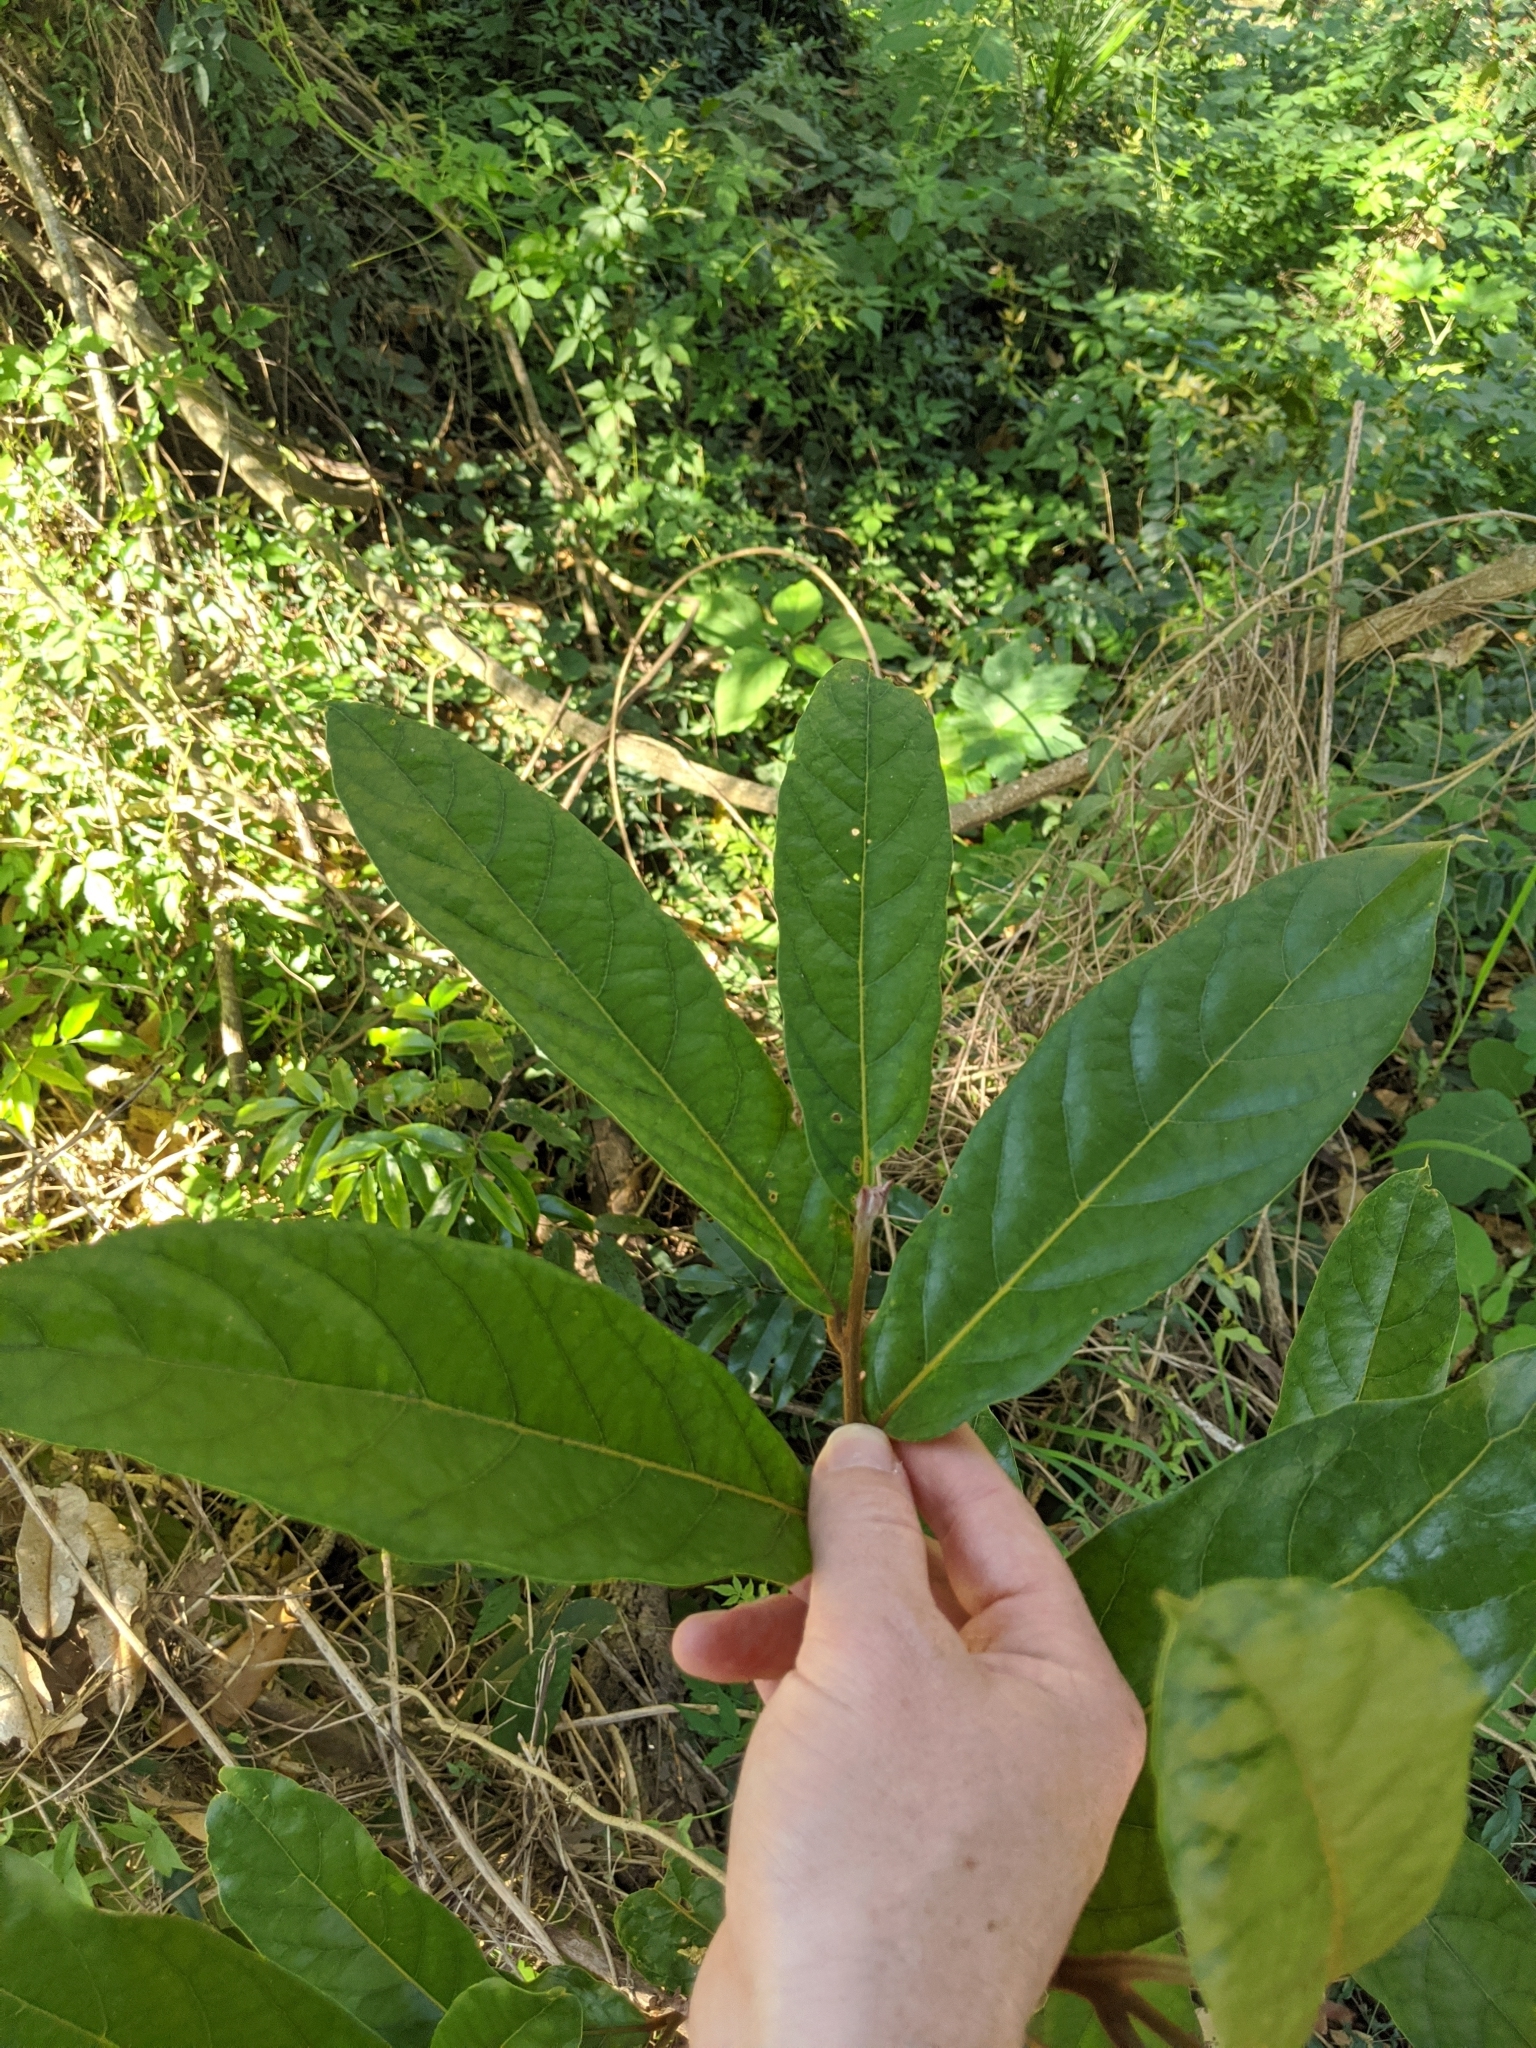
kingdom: Plantae
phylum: Tracheophyta
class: Magnoliopsida
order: Laurales
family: Lauraceae
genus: Cryptocarya
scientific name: Cryptocarya obovata
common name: Pepperberry-tree
